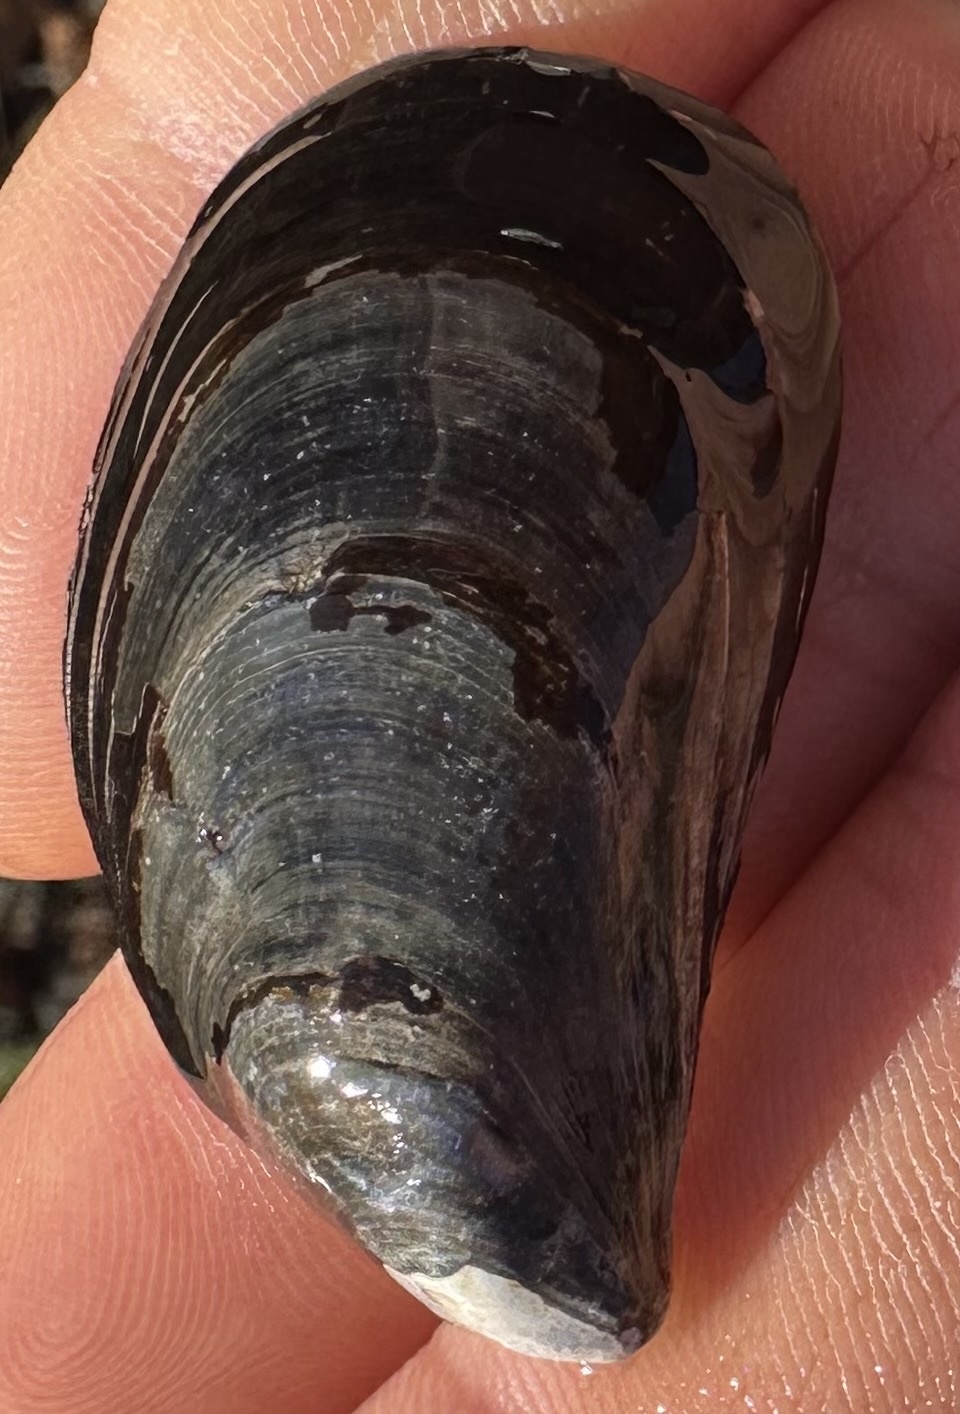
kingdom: Animalia
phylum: Mollusca
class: Bivalvia
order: Mytilida
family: Mytilidae
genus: Mytilus
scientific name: Mytilus edulis
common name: Blue mussel
